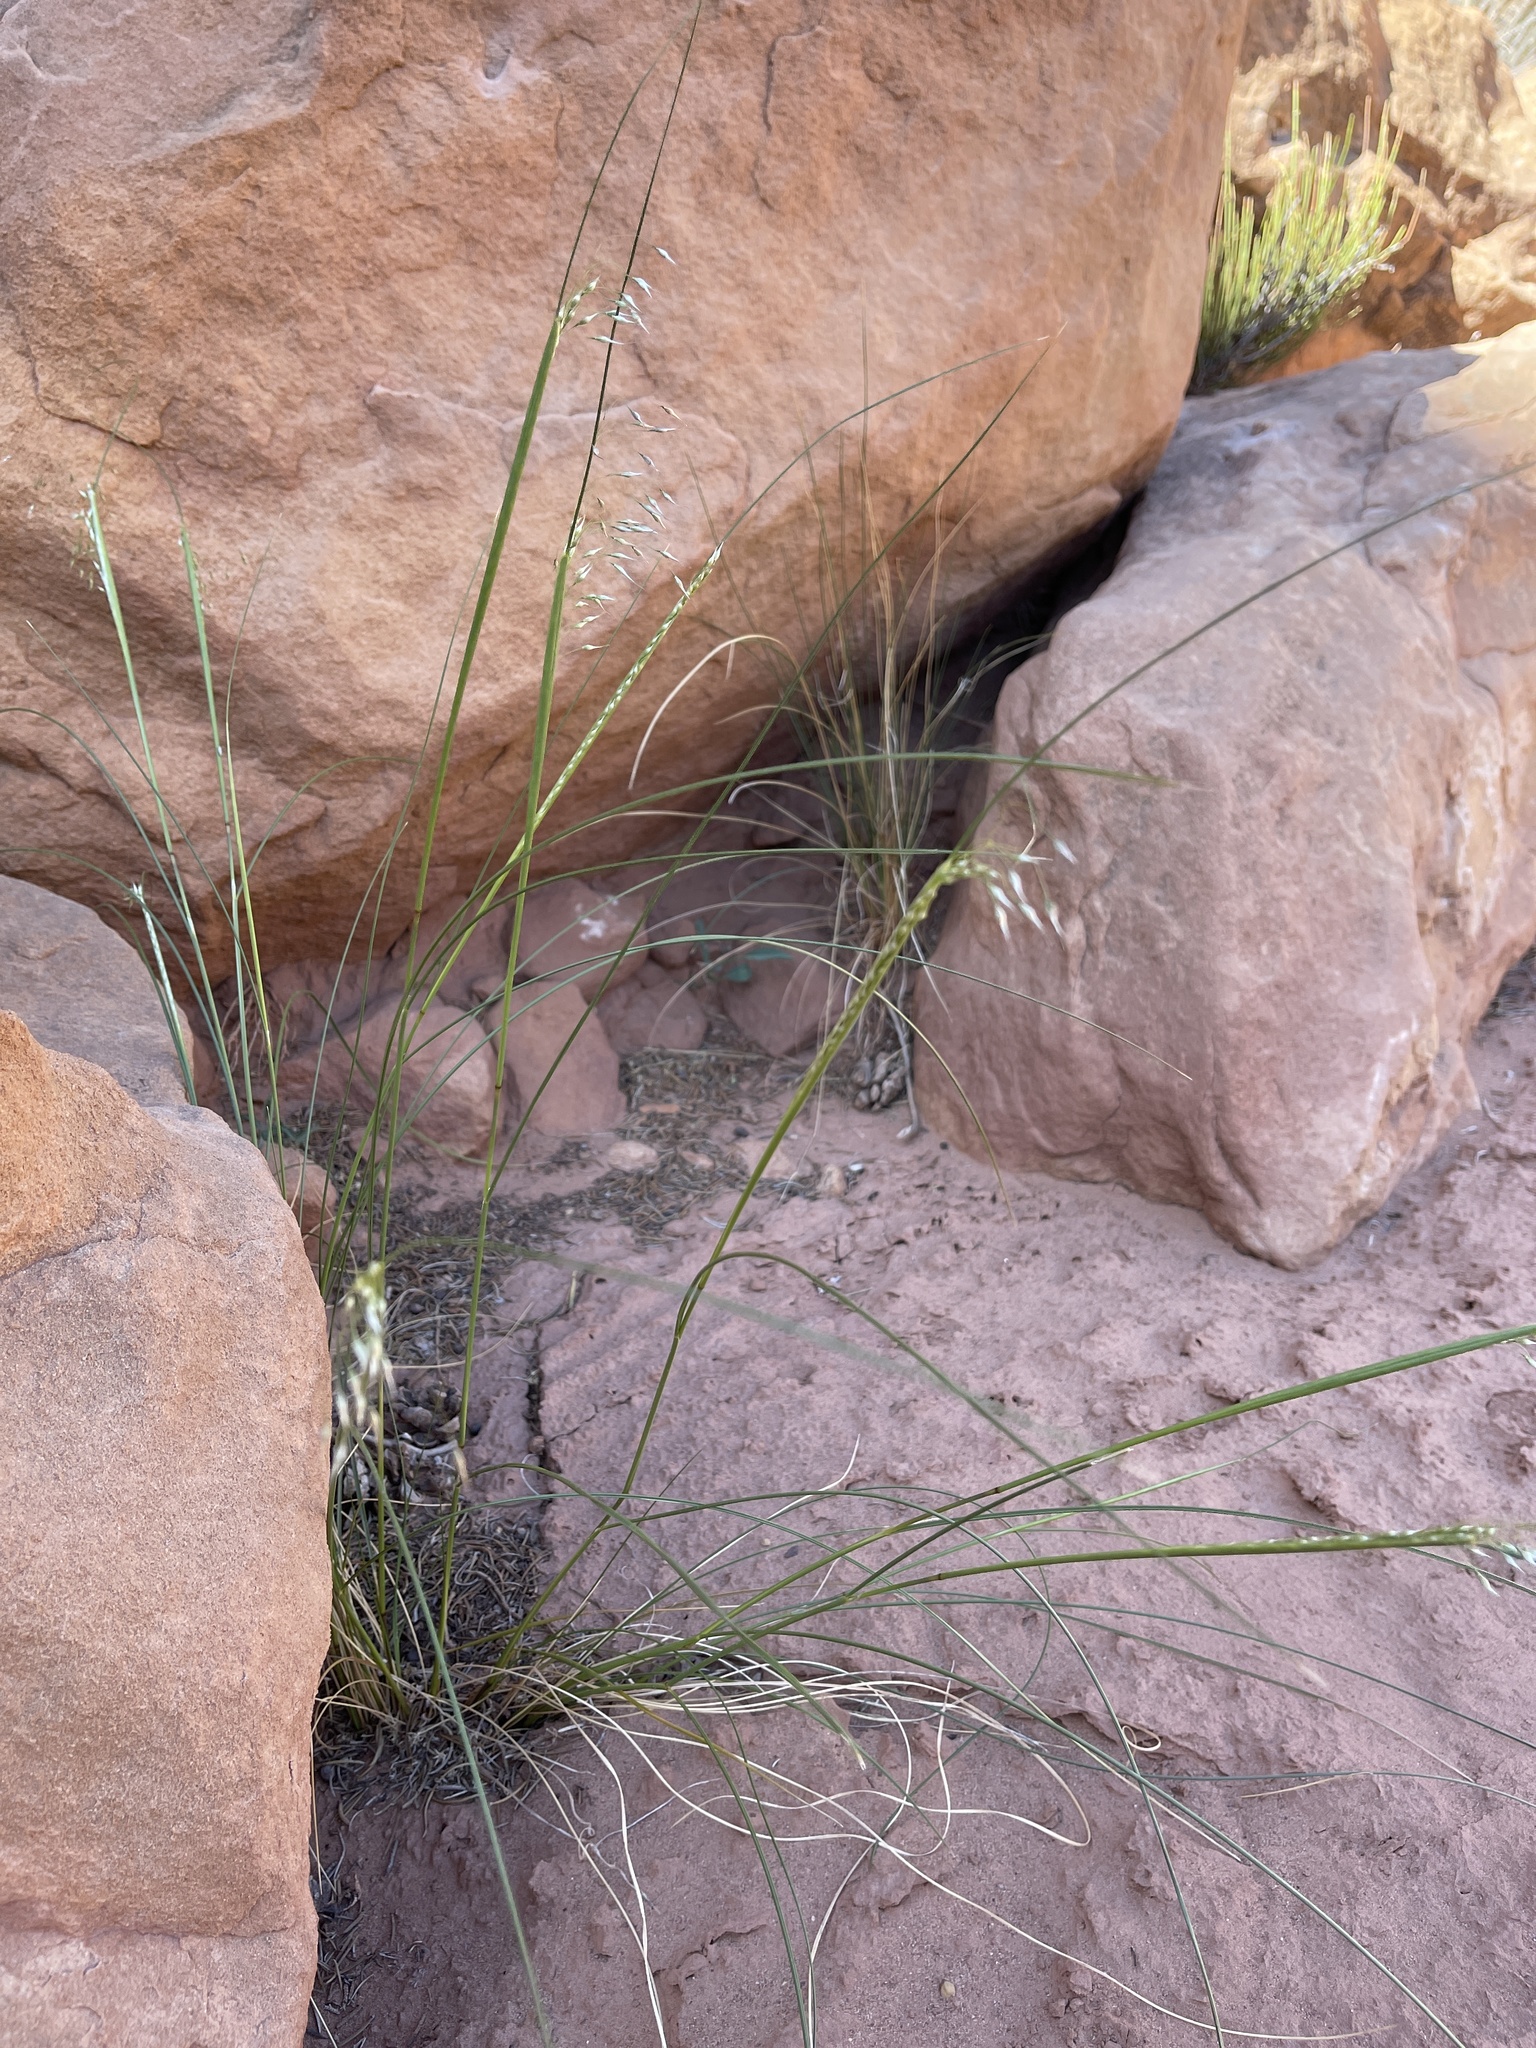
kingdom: Plantae
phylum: Tracheophyta
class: Liliopsida
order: Poales
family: Poaceae
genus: Eriocoma
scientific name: Eriocoma hymenoides
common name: Indian mountain ricegrass
